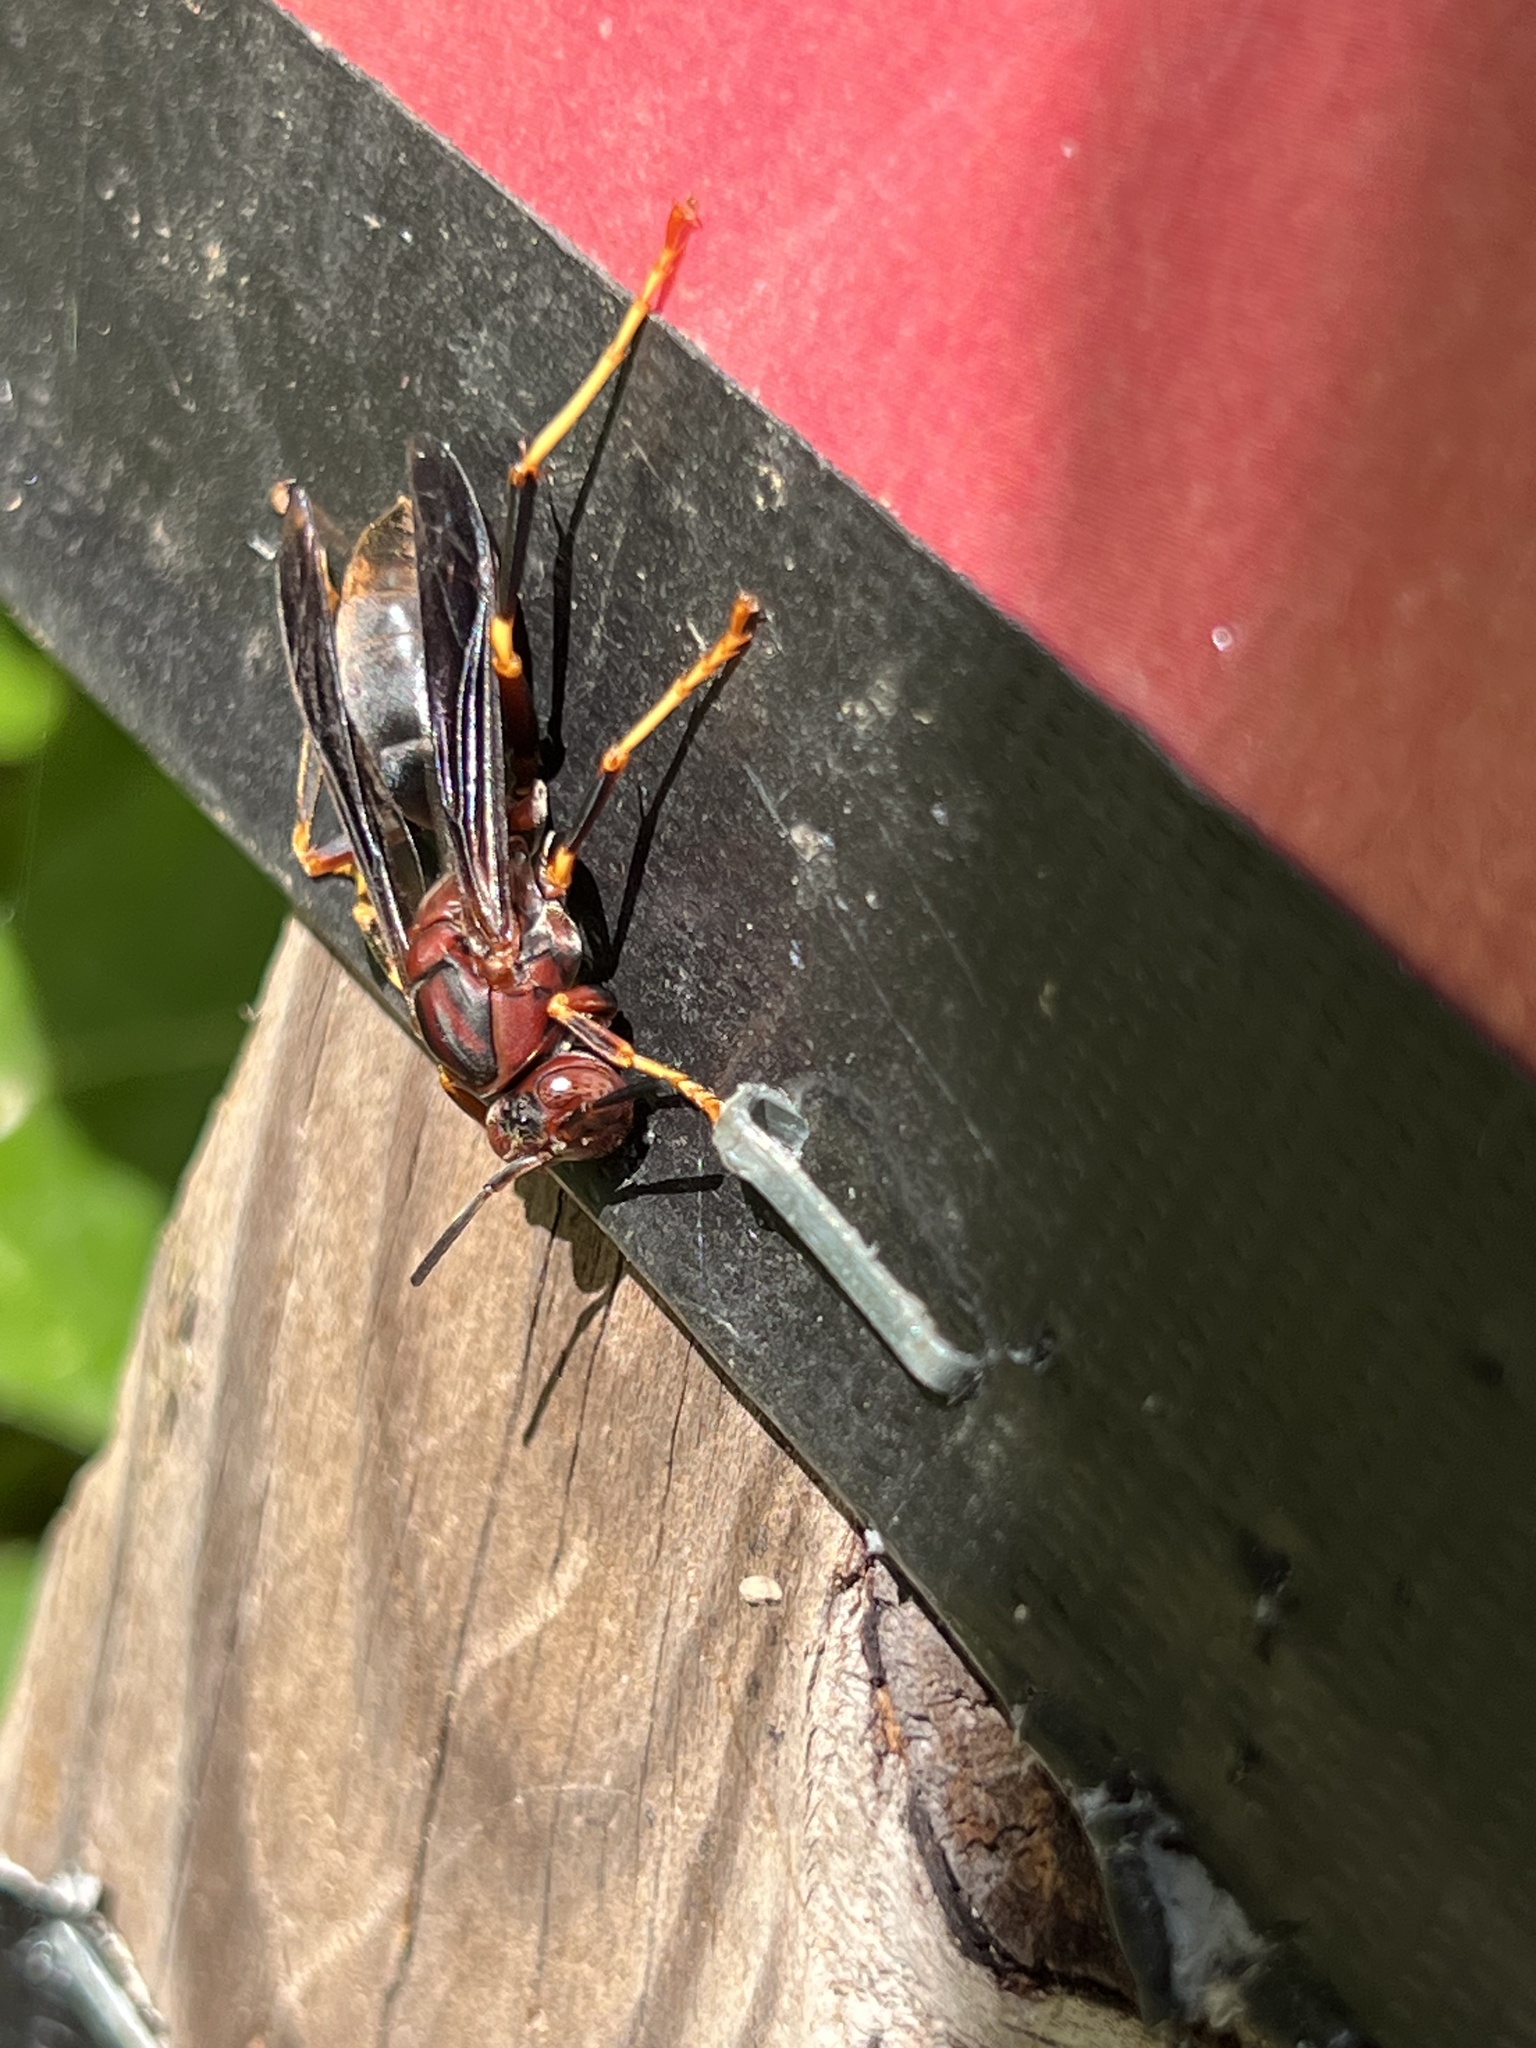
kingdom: Animalia
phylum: Arthropoda
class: Insecta
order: Hymenoptera
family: Eumenidae
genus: Polistes
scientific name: Polistes metricus
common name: Metric paper wasp
